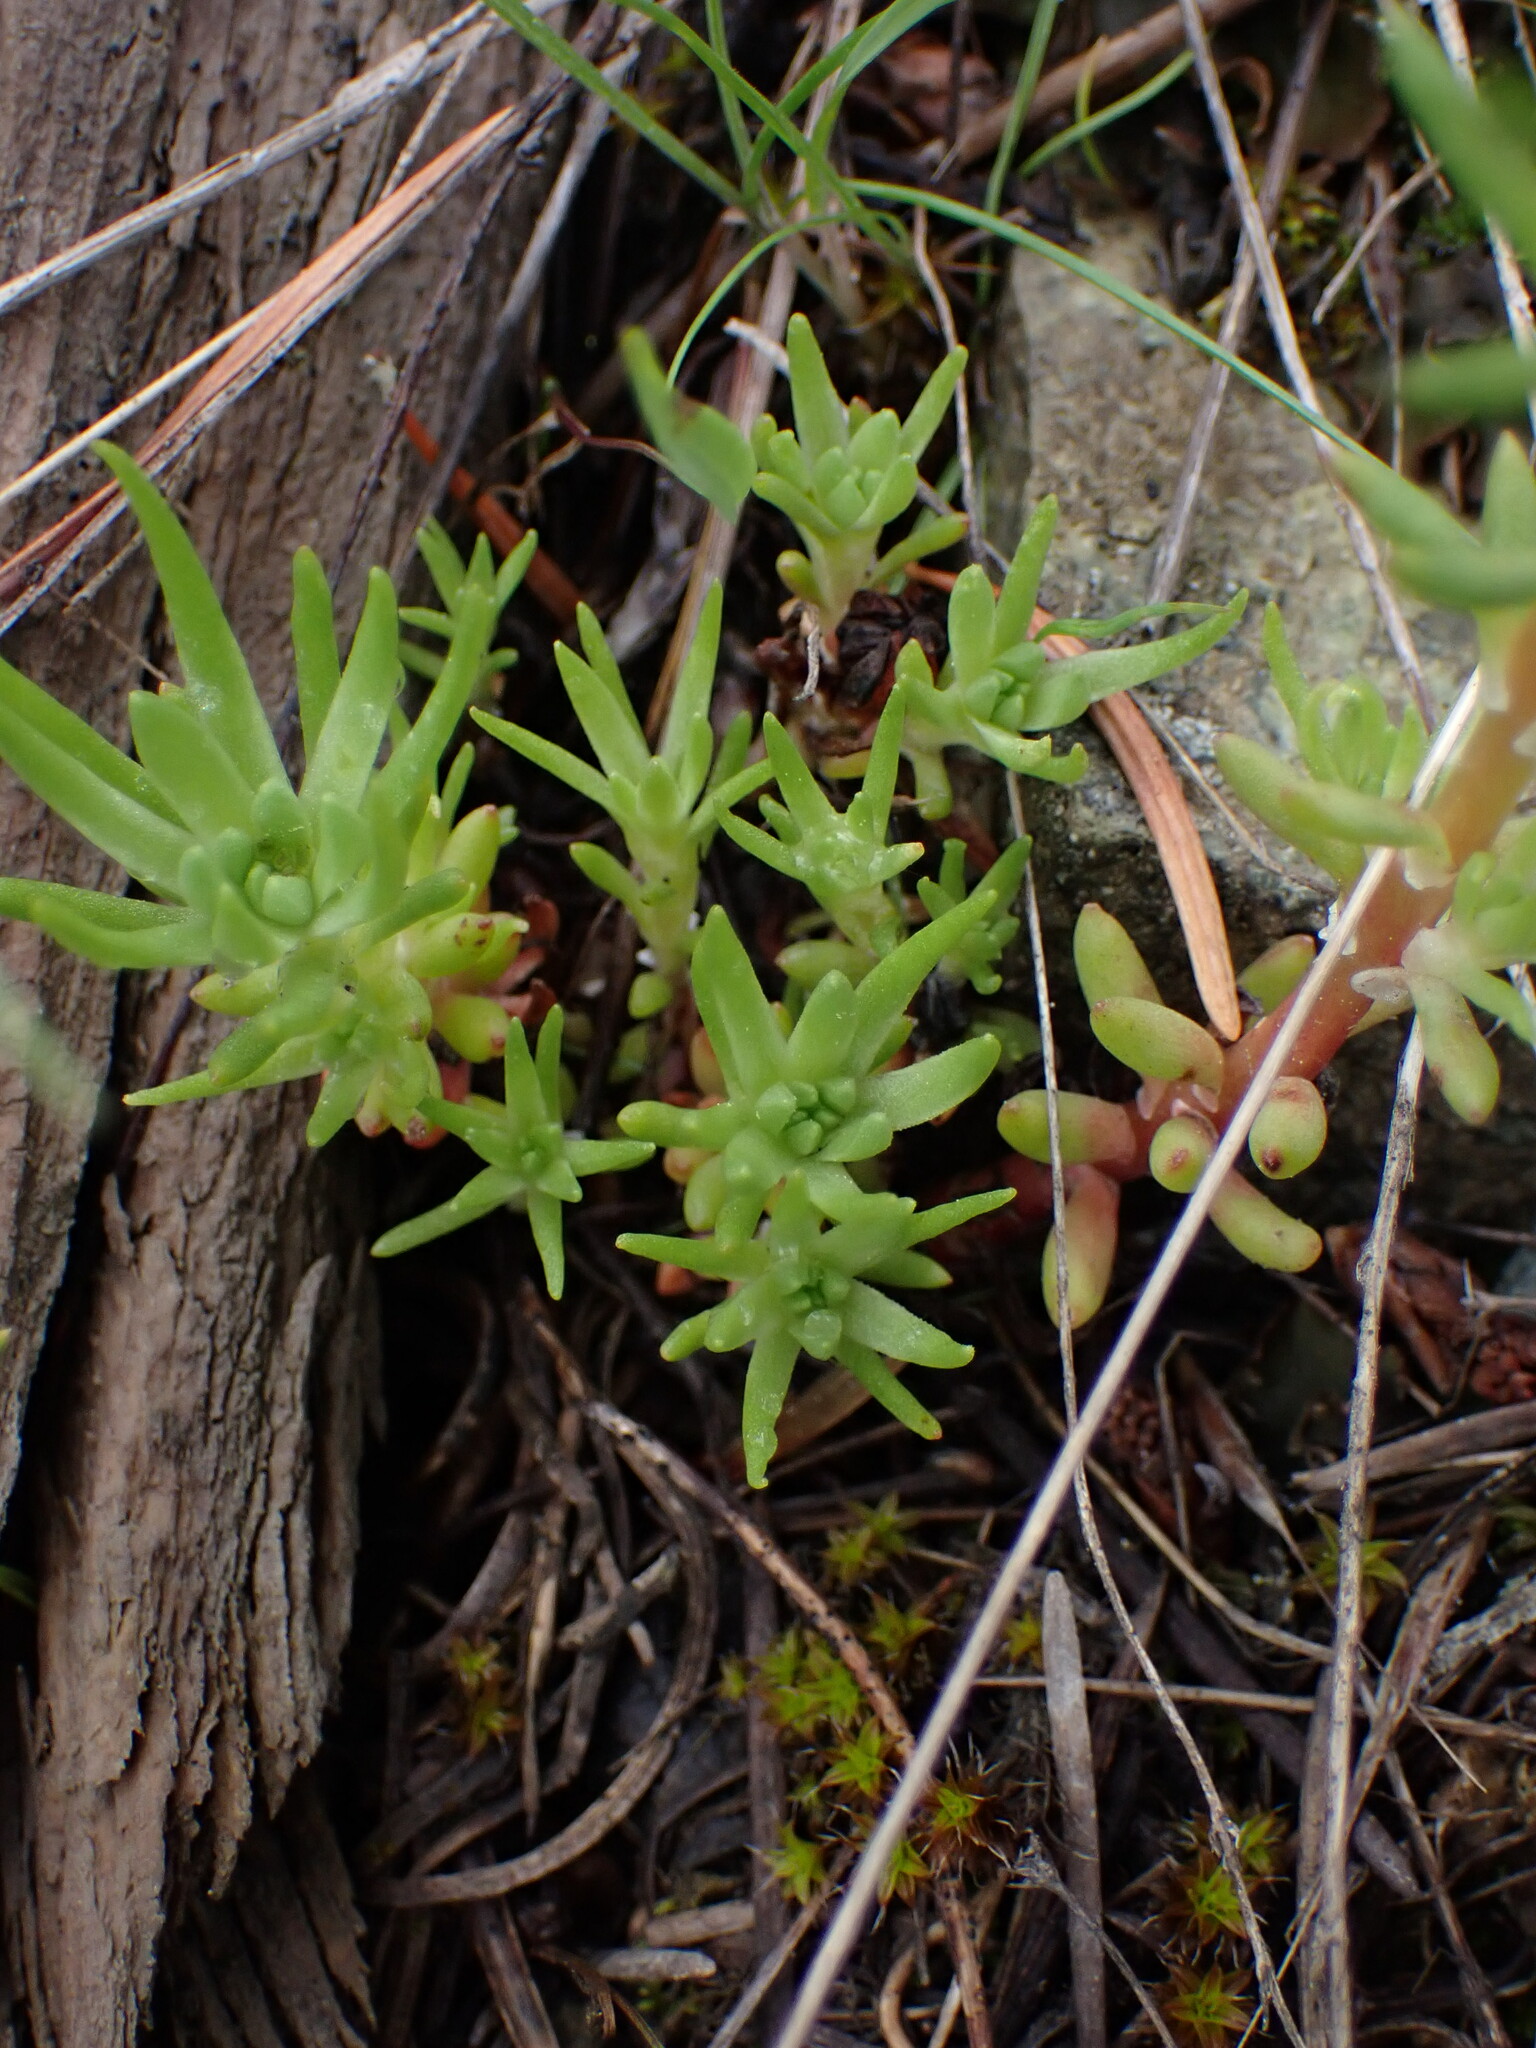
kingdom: Plantae
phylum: Tracheophyta
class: Magnoliopsida
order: Saxifragales
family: Crassulaceae
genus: Sedum
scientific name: Sedum stenopetalum
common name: Narrow-petaled stonecrop
